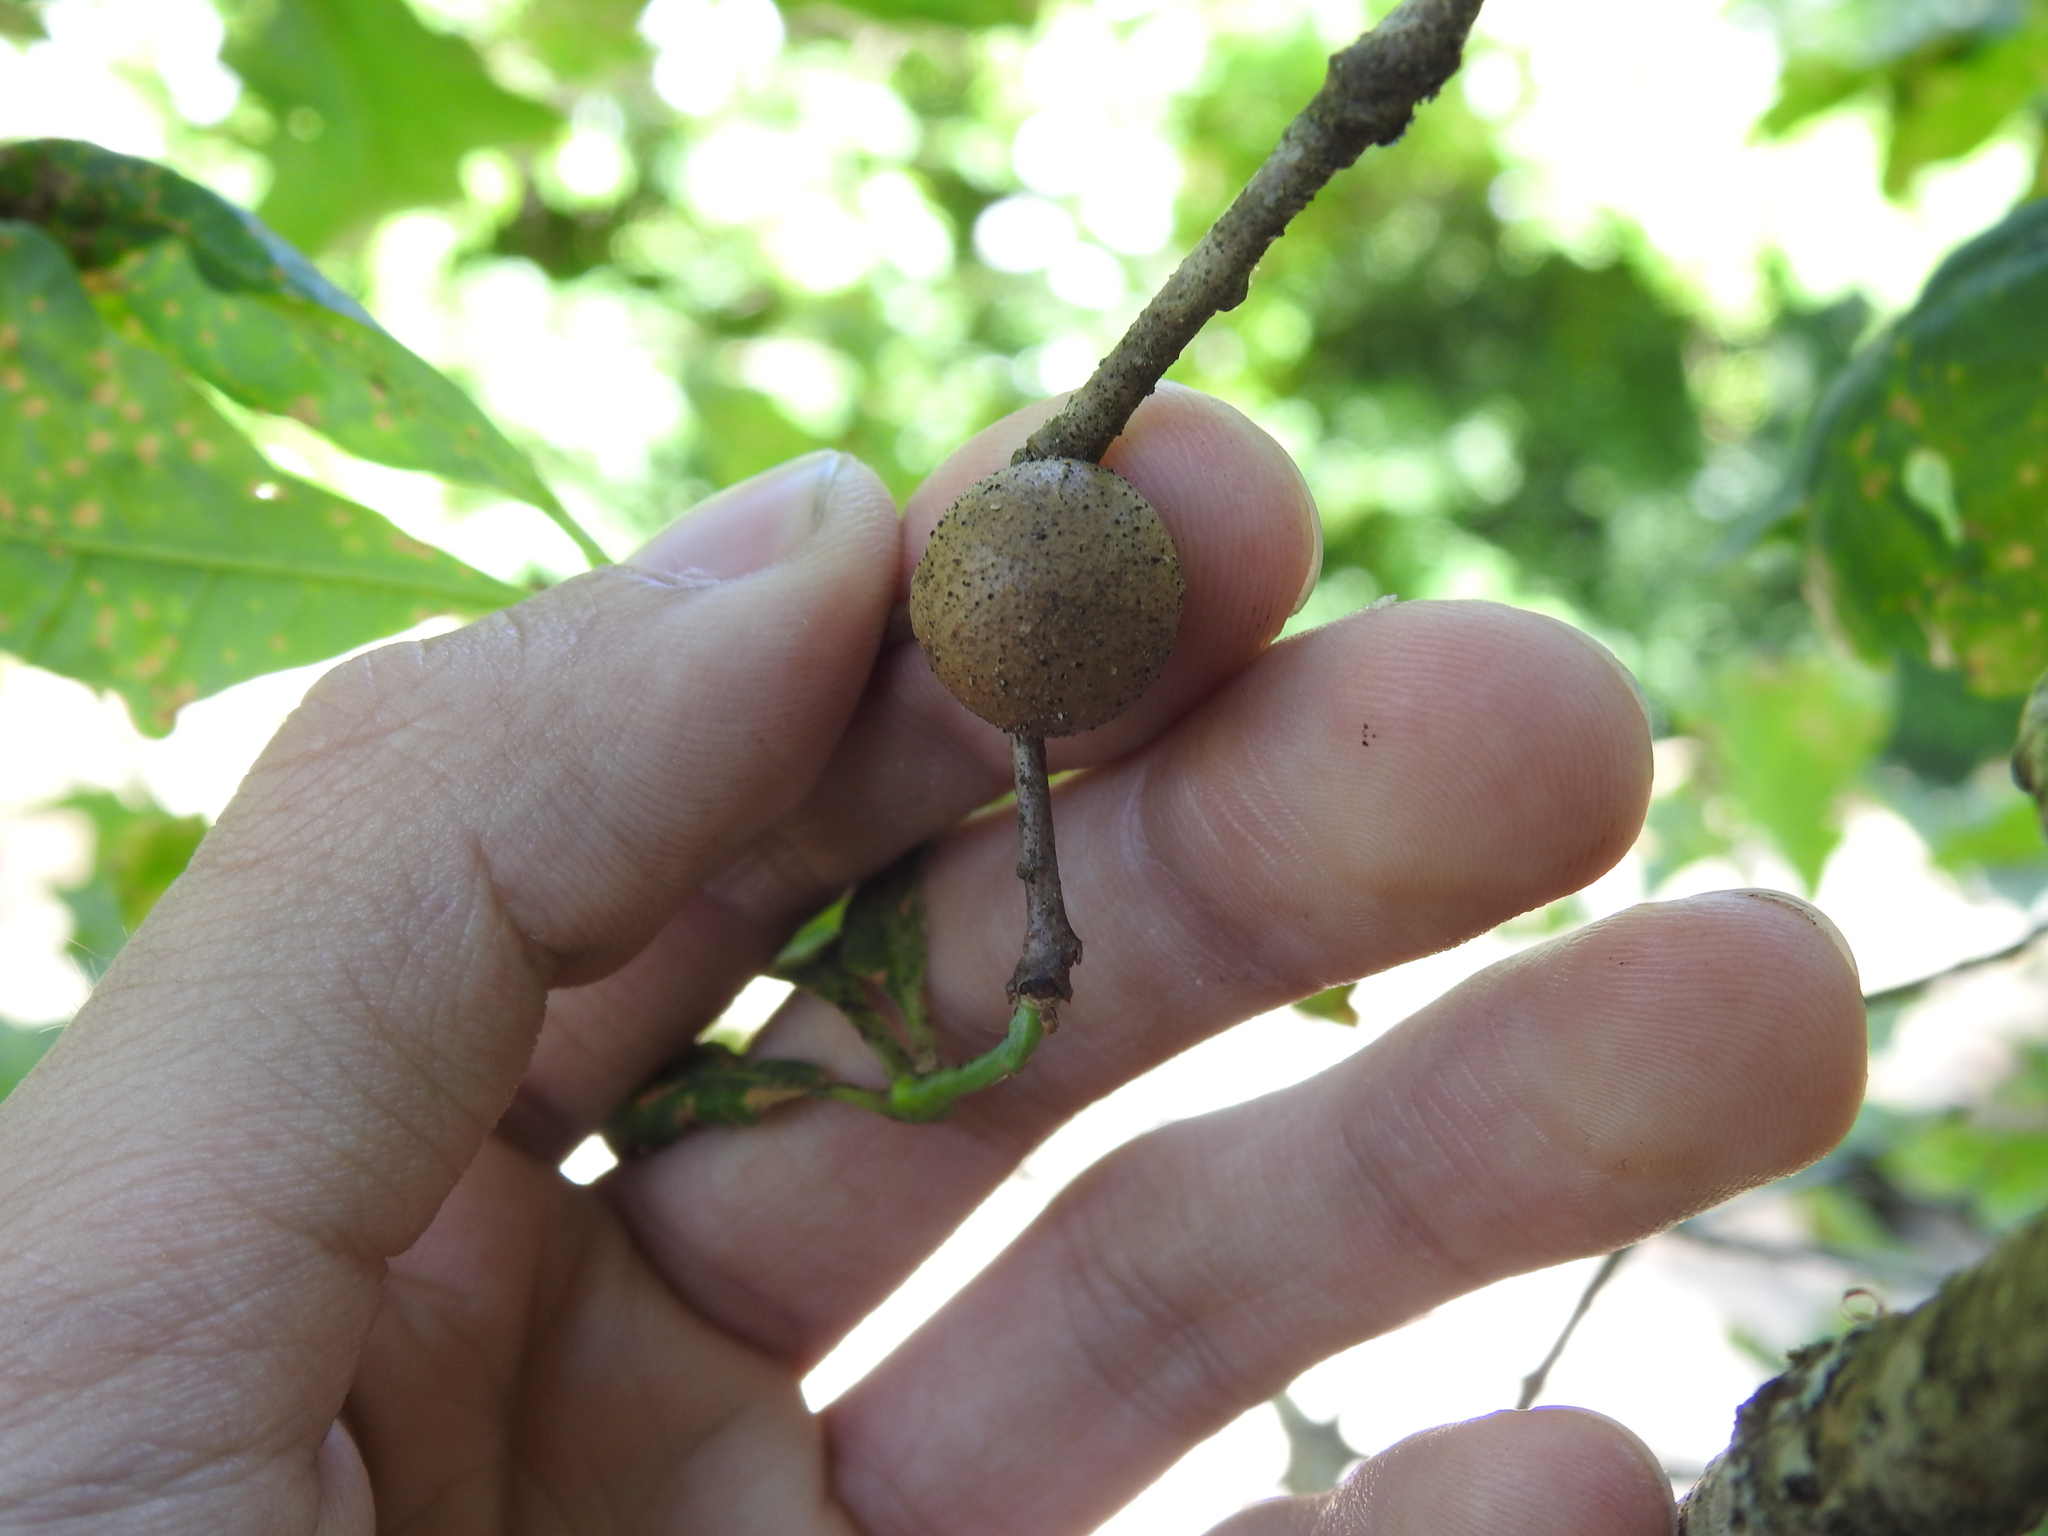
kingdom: Animalia
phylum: Arthropoda
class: Insecta
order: Hymenoptera
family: Cynipidae
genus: Disholcaspis
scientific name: Disholcaspis quercusglobulus
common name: Round bullet gall wasp
